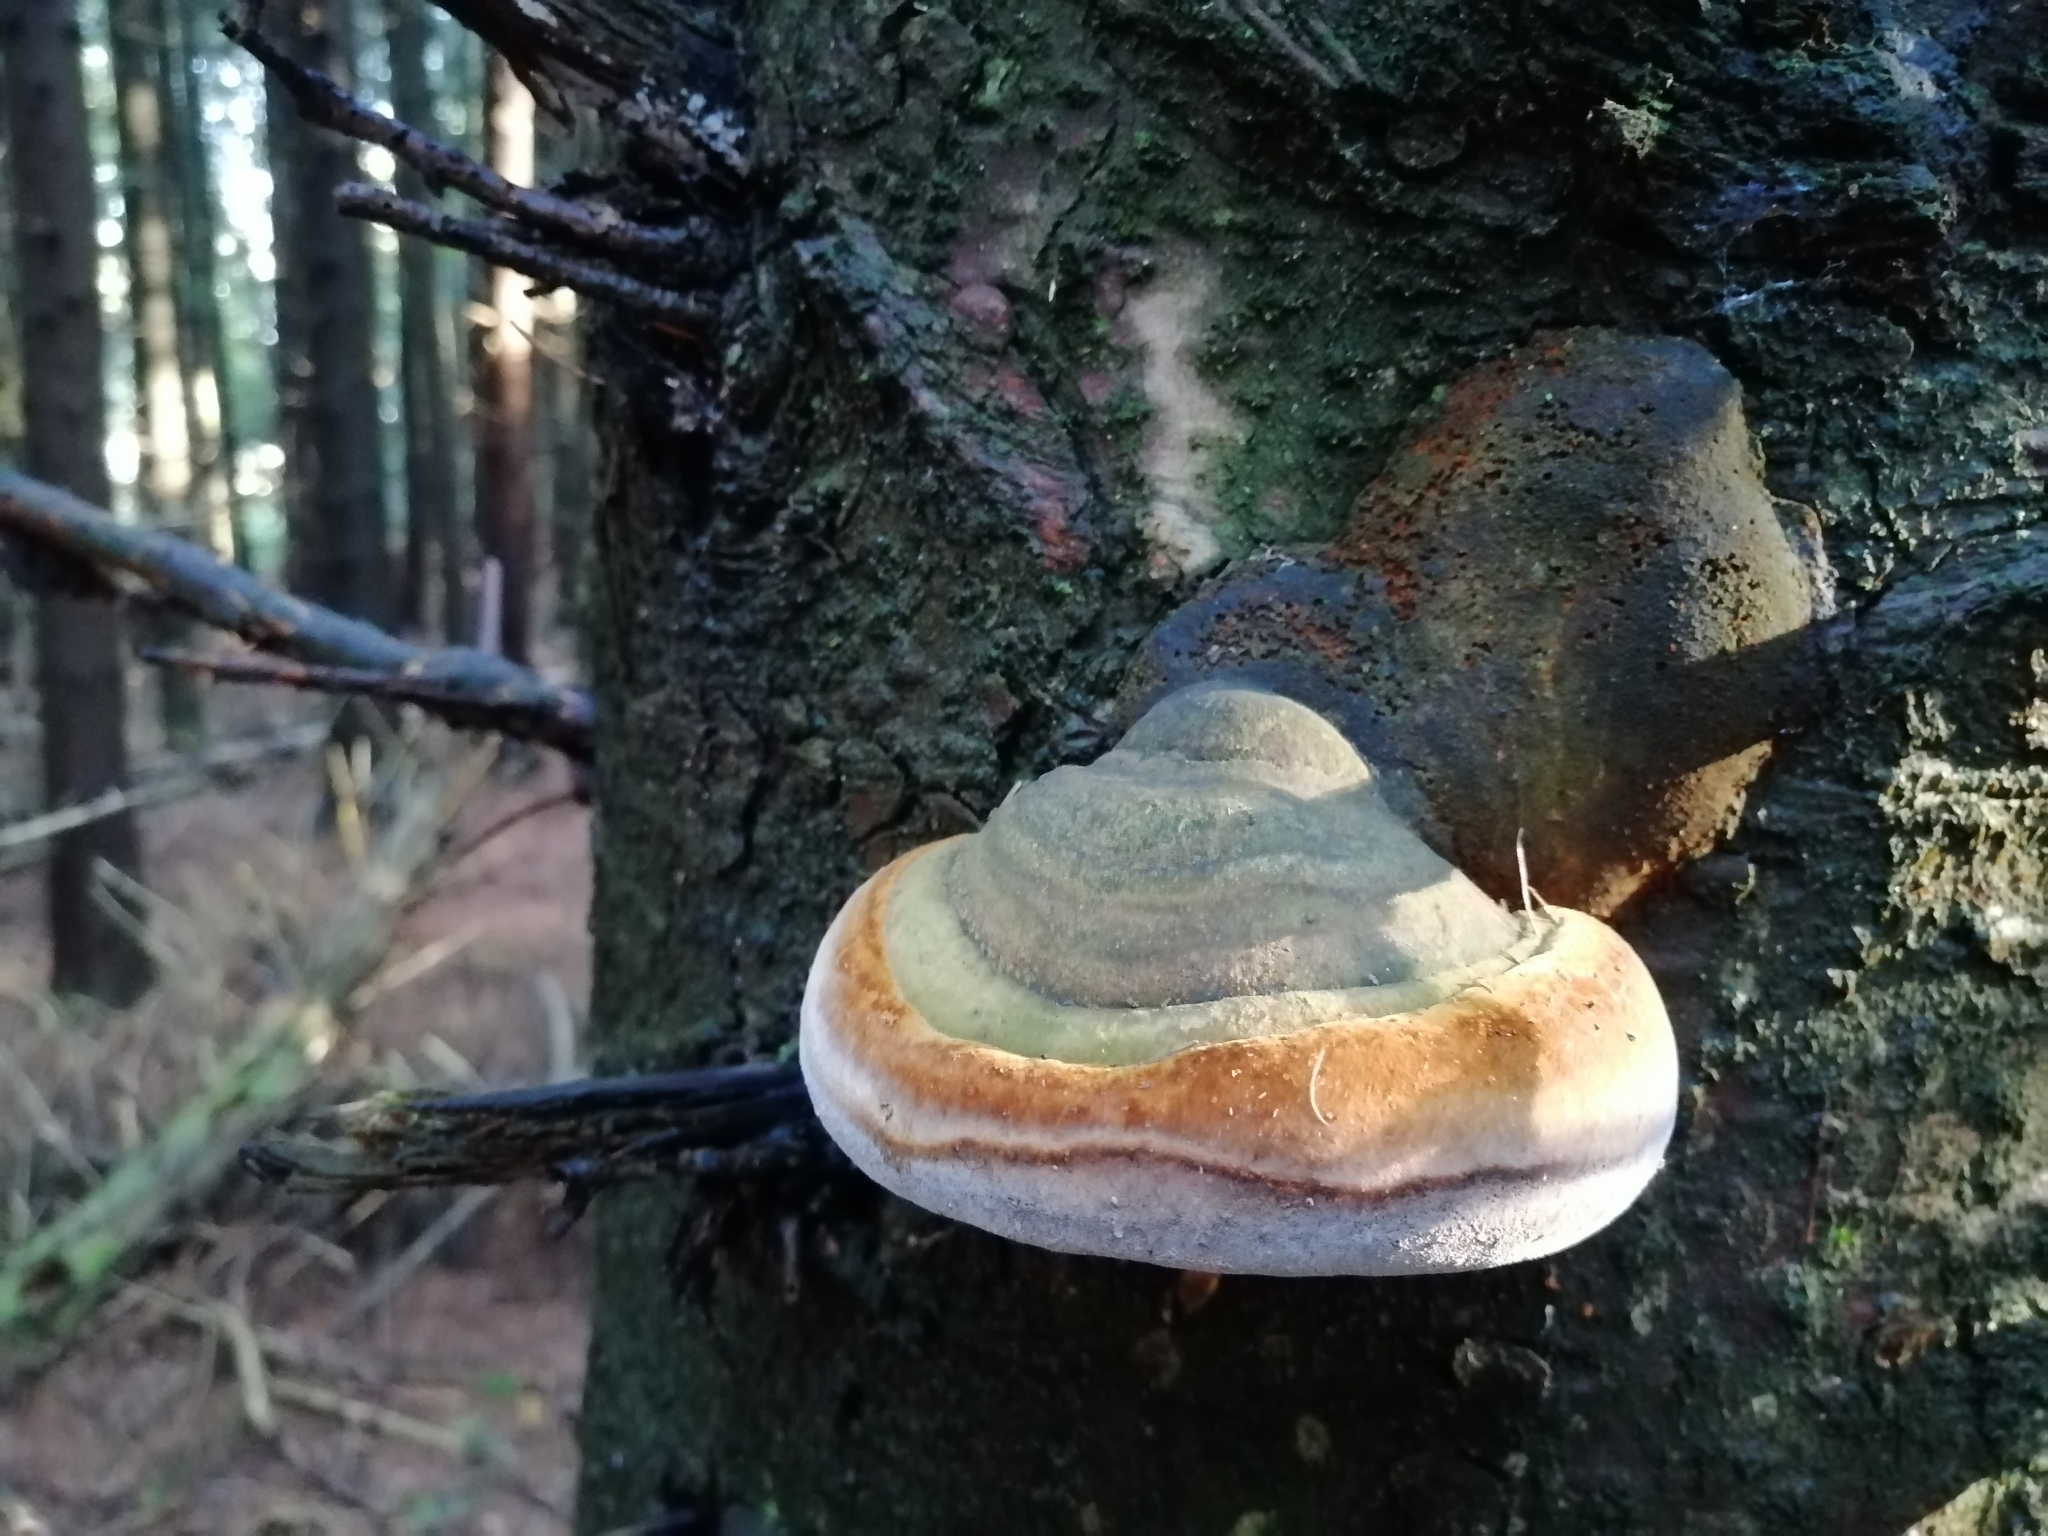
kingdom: Fungi
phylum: Basidiomycota
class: Agaricomycetes
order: Hymenochaetales
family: Hymenochaetaceae
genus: Phellinus
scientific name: Phellinus hartigii
